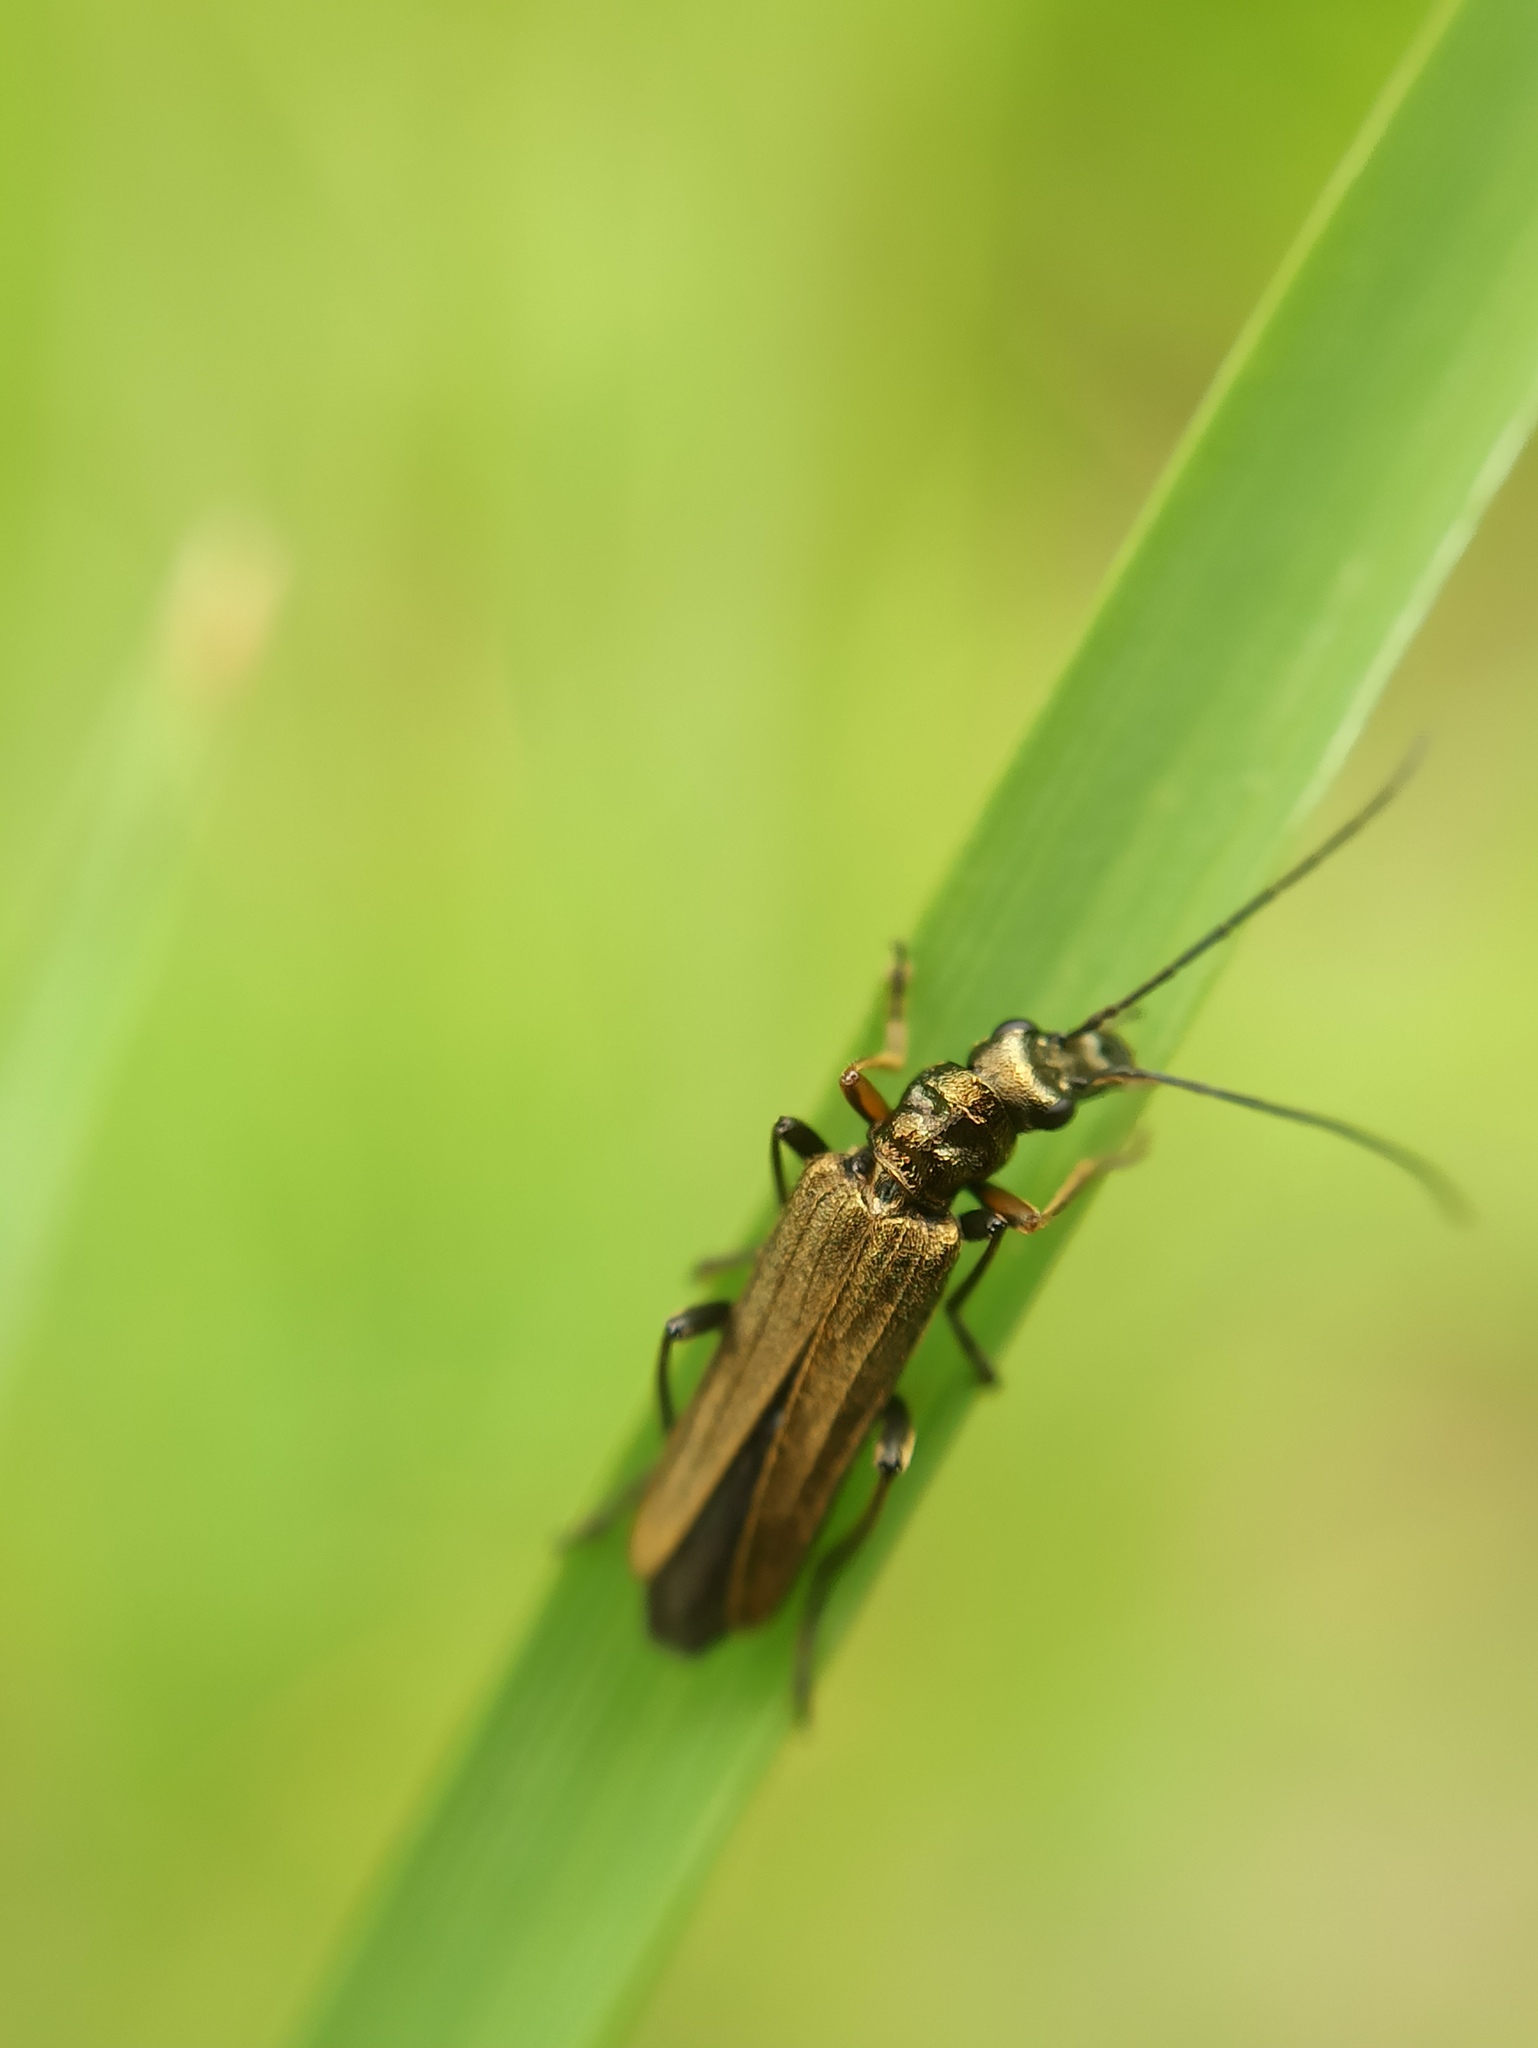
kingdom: Animalia
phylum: Arthropoda
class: Insecta
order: Coleoptera
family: Oedemeridae
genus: Oedemera
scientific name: Oedemera flavipes
